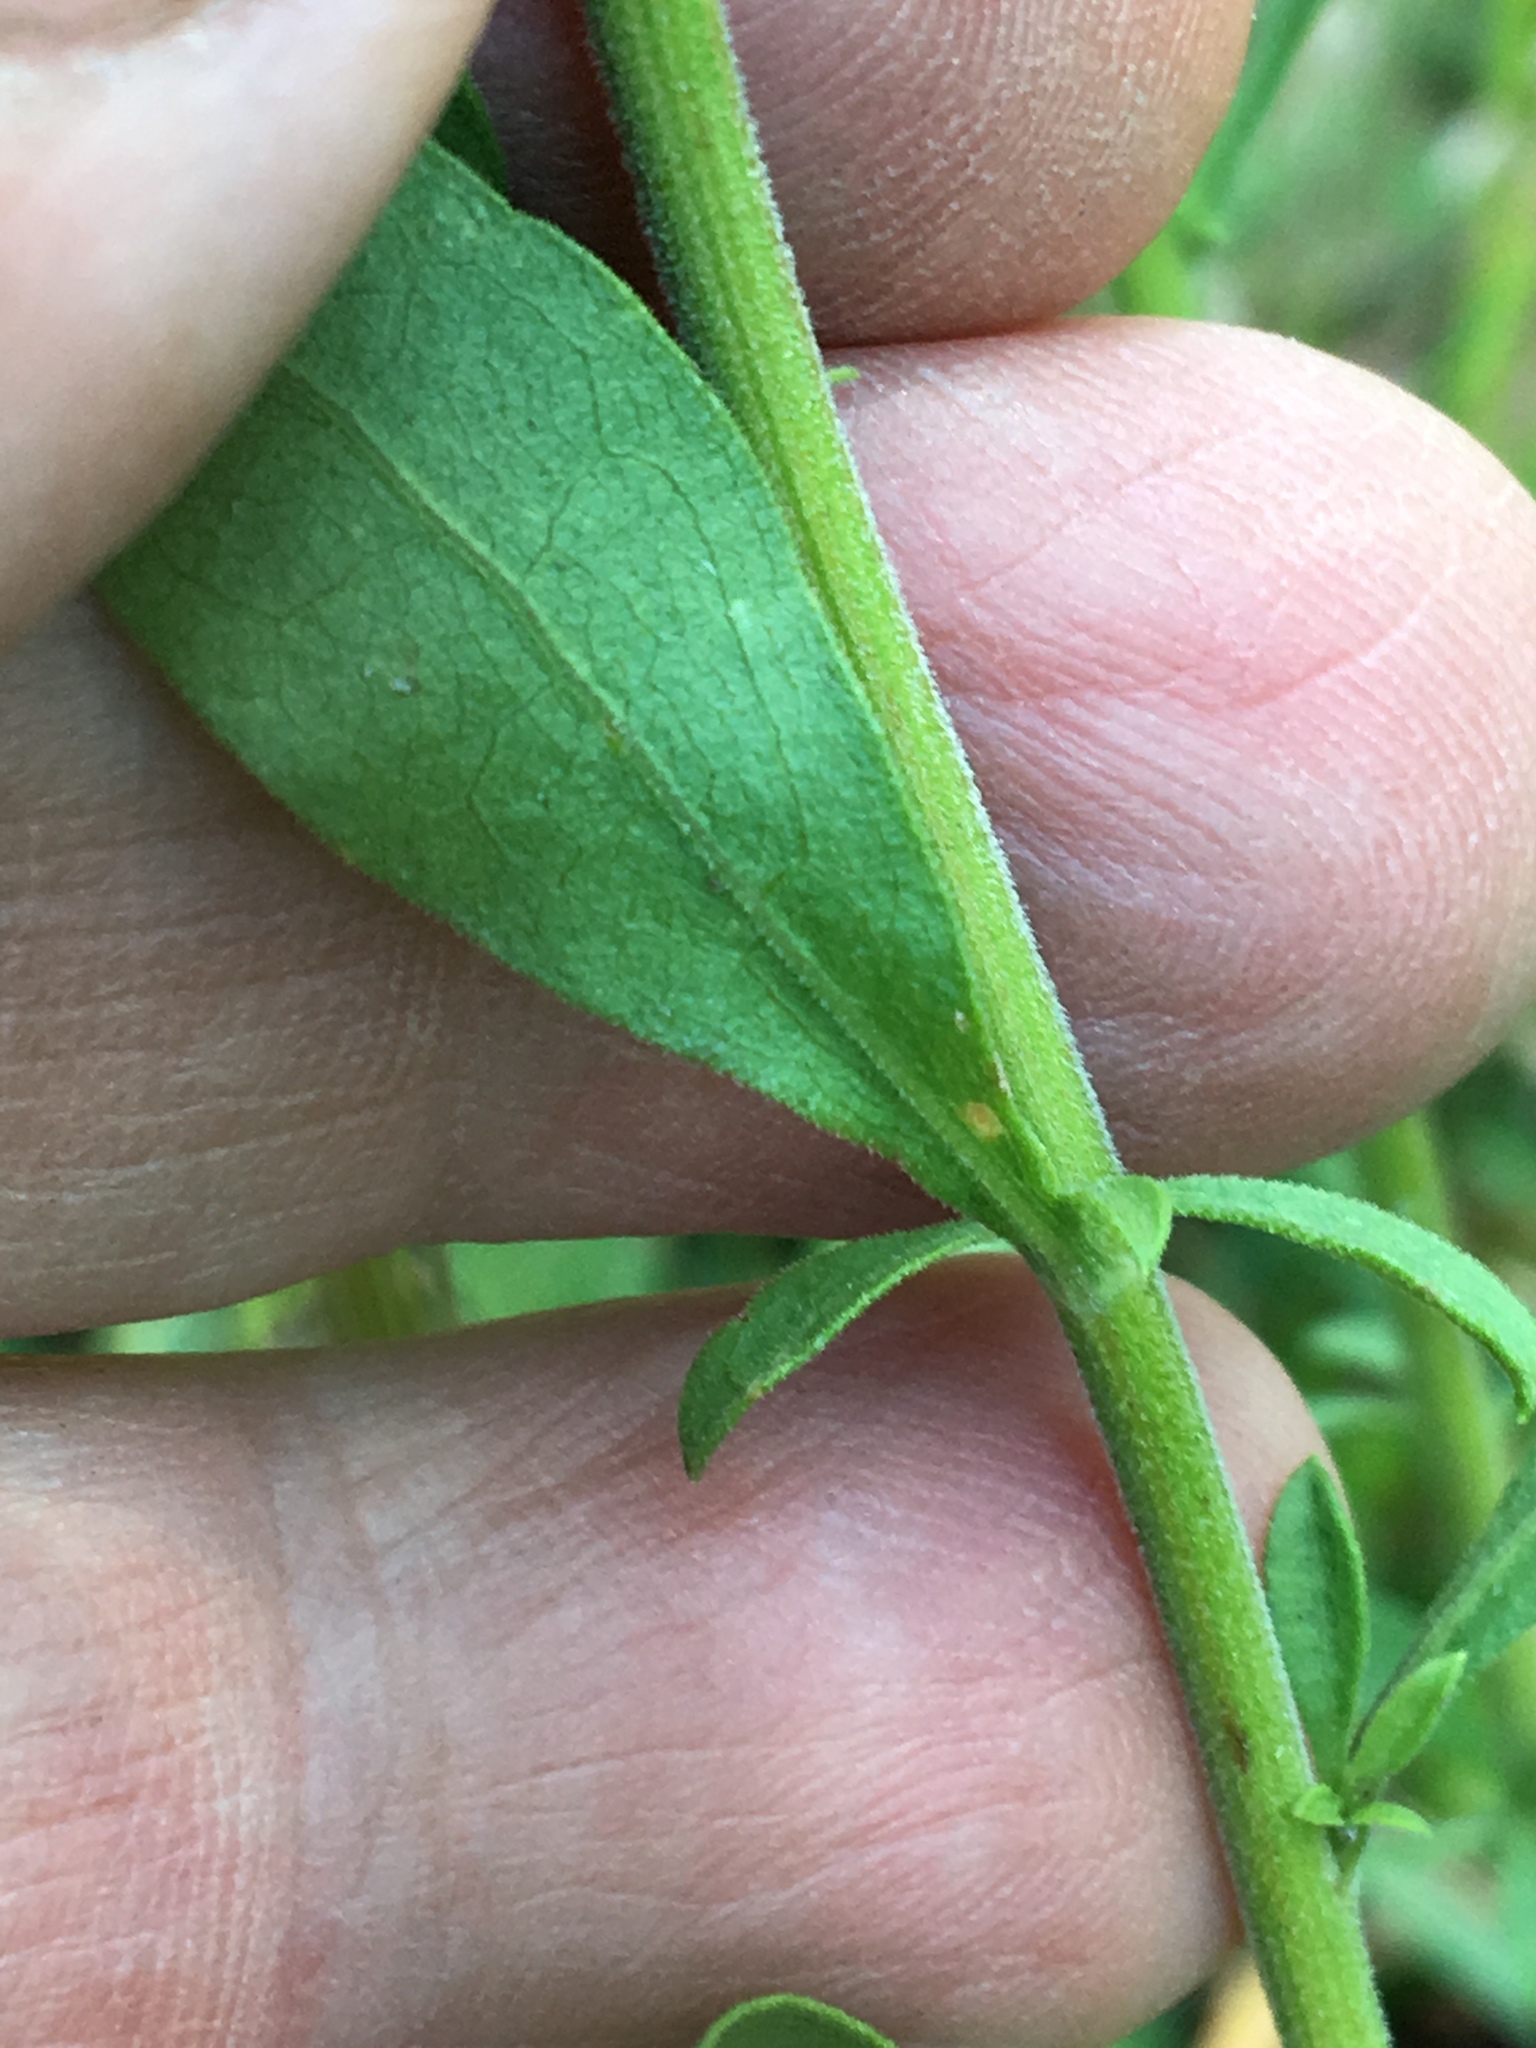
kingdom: Plantae
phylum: Tracheophyta
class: Magnoliopsida
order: Asterales
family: Asteraceae
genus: Solidago
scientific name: Solidago nemoralis
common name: Grey goldenrod
